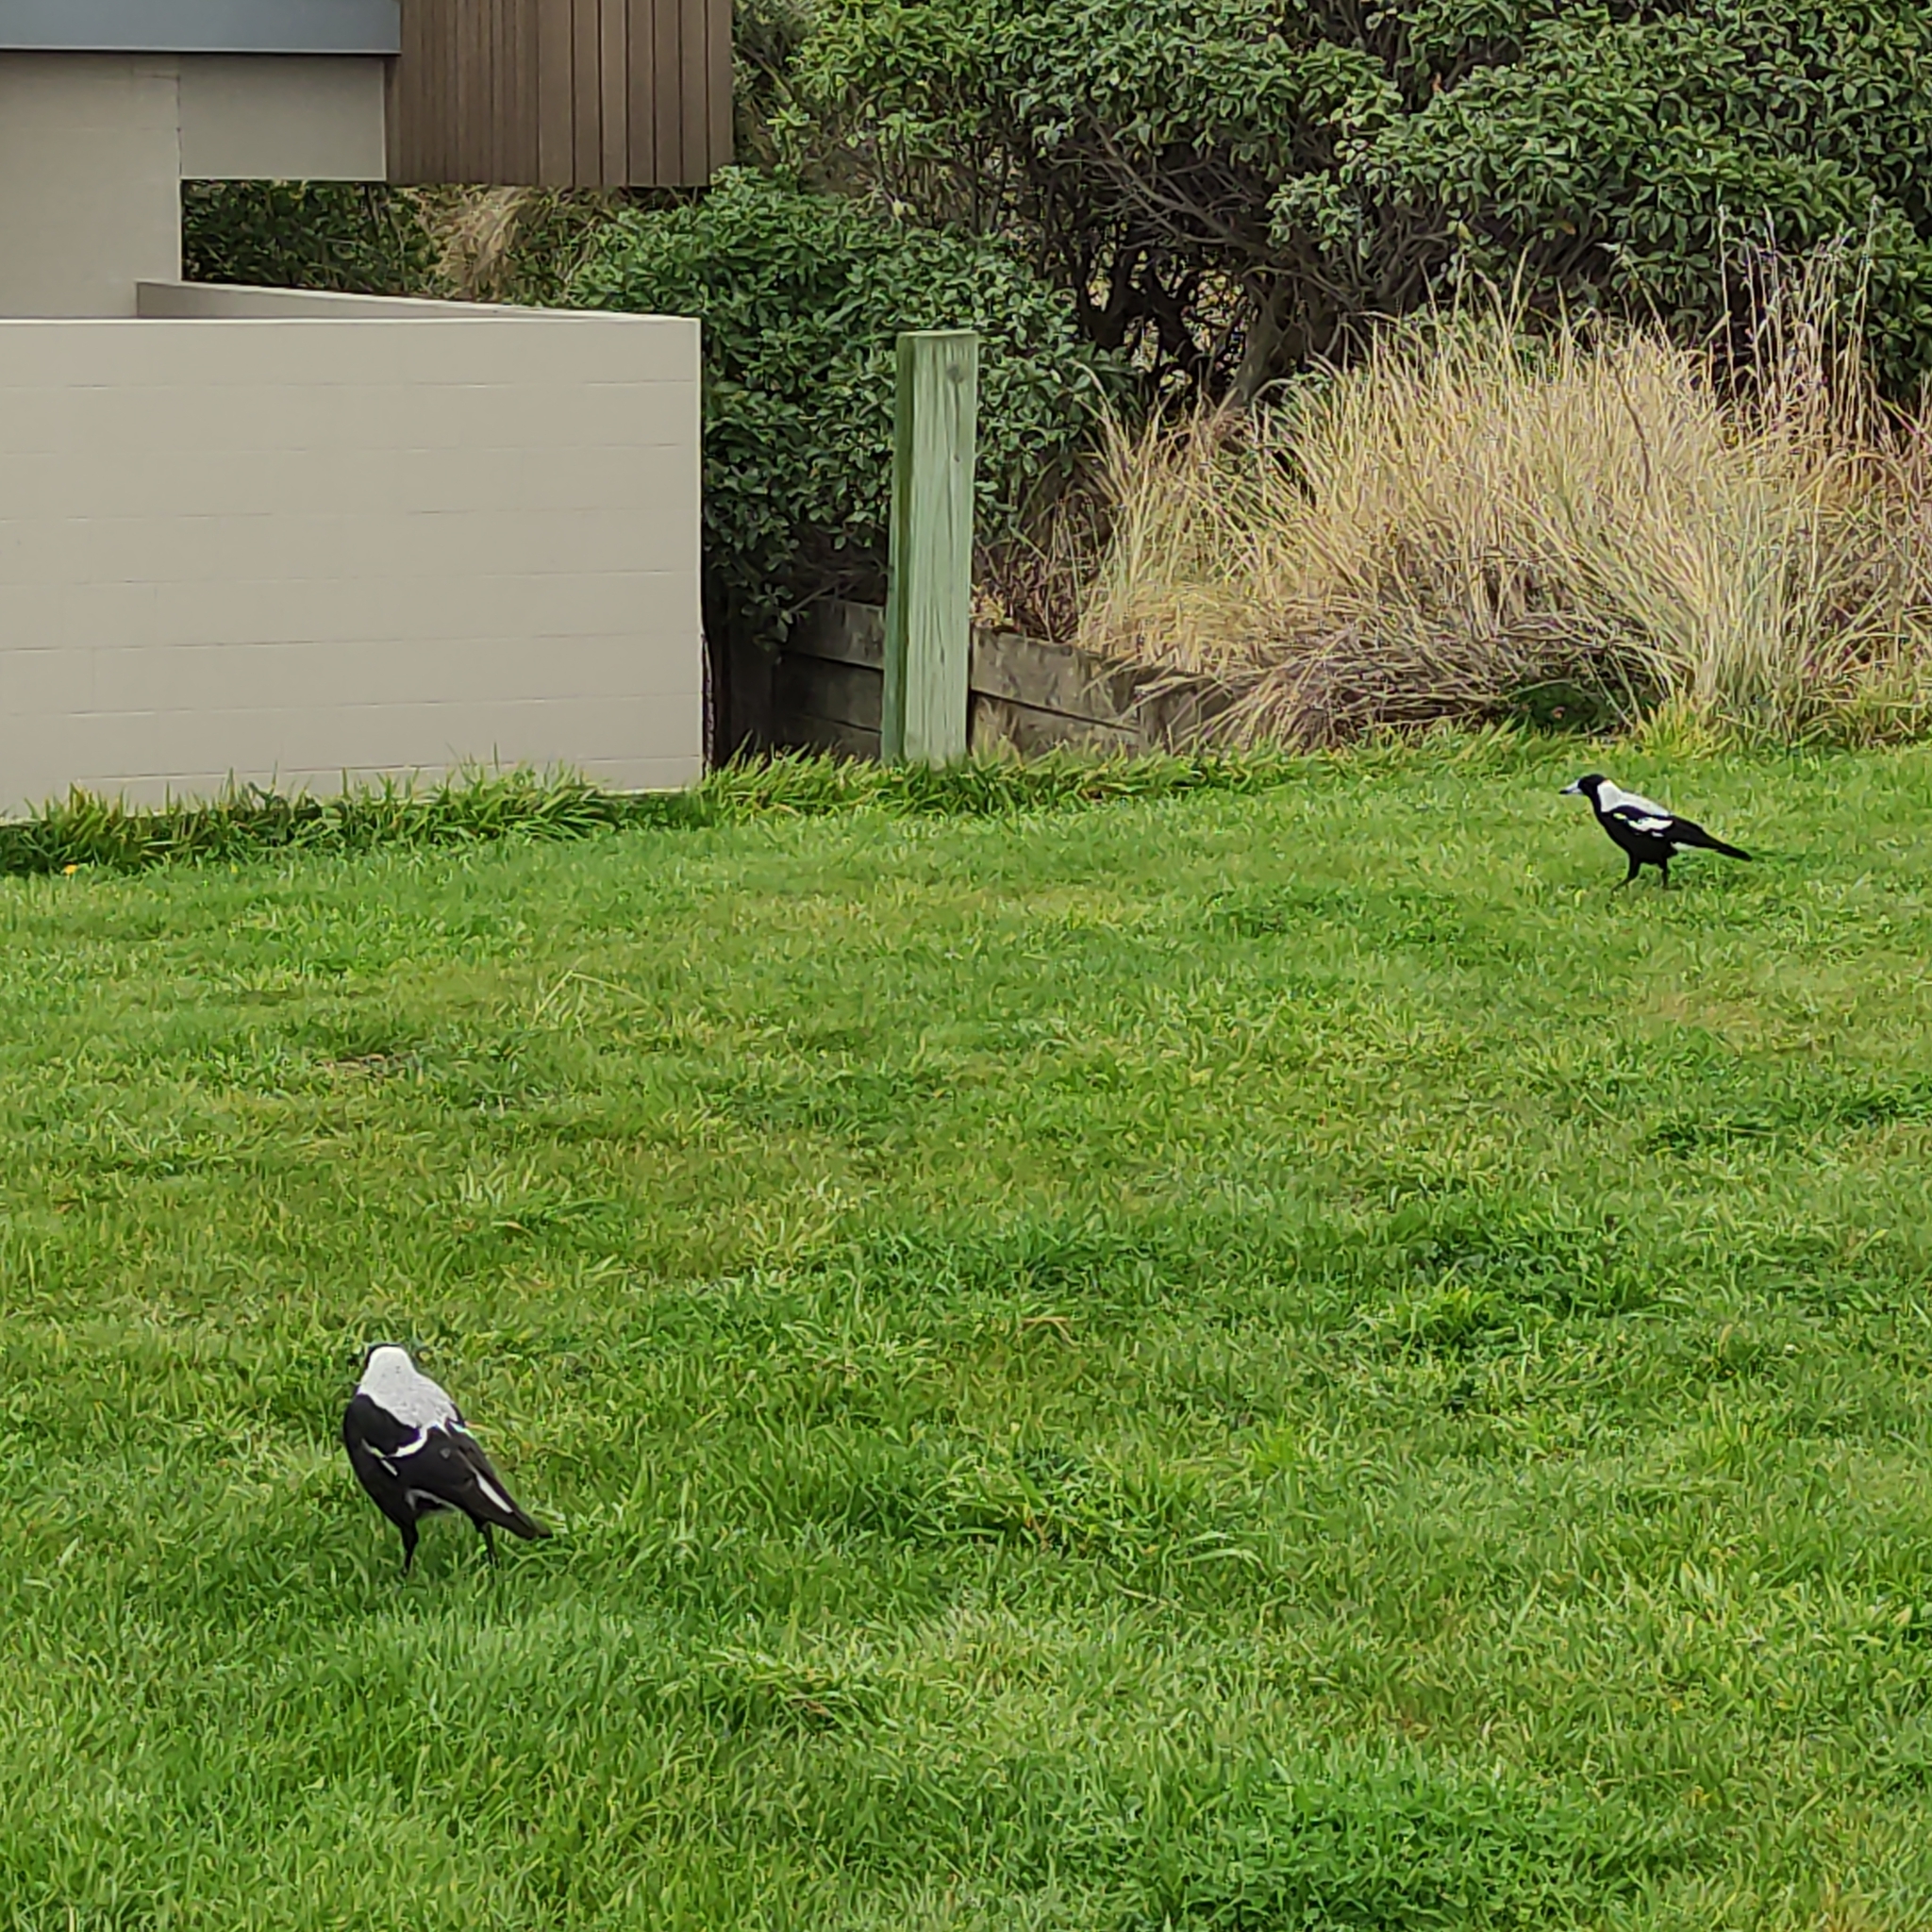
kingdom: Animalia
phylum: Chordata
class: Aves
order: Passeriformes
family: Cracticidae
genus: Gymnorhina
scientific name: Gymnorhina tibicen
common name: Australian magpie
